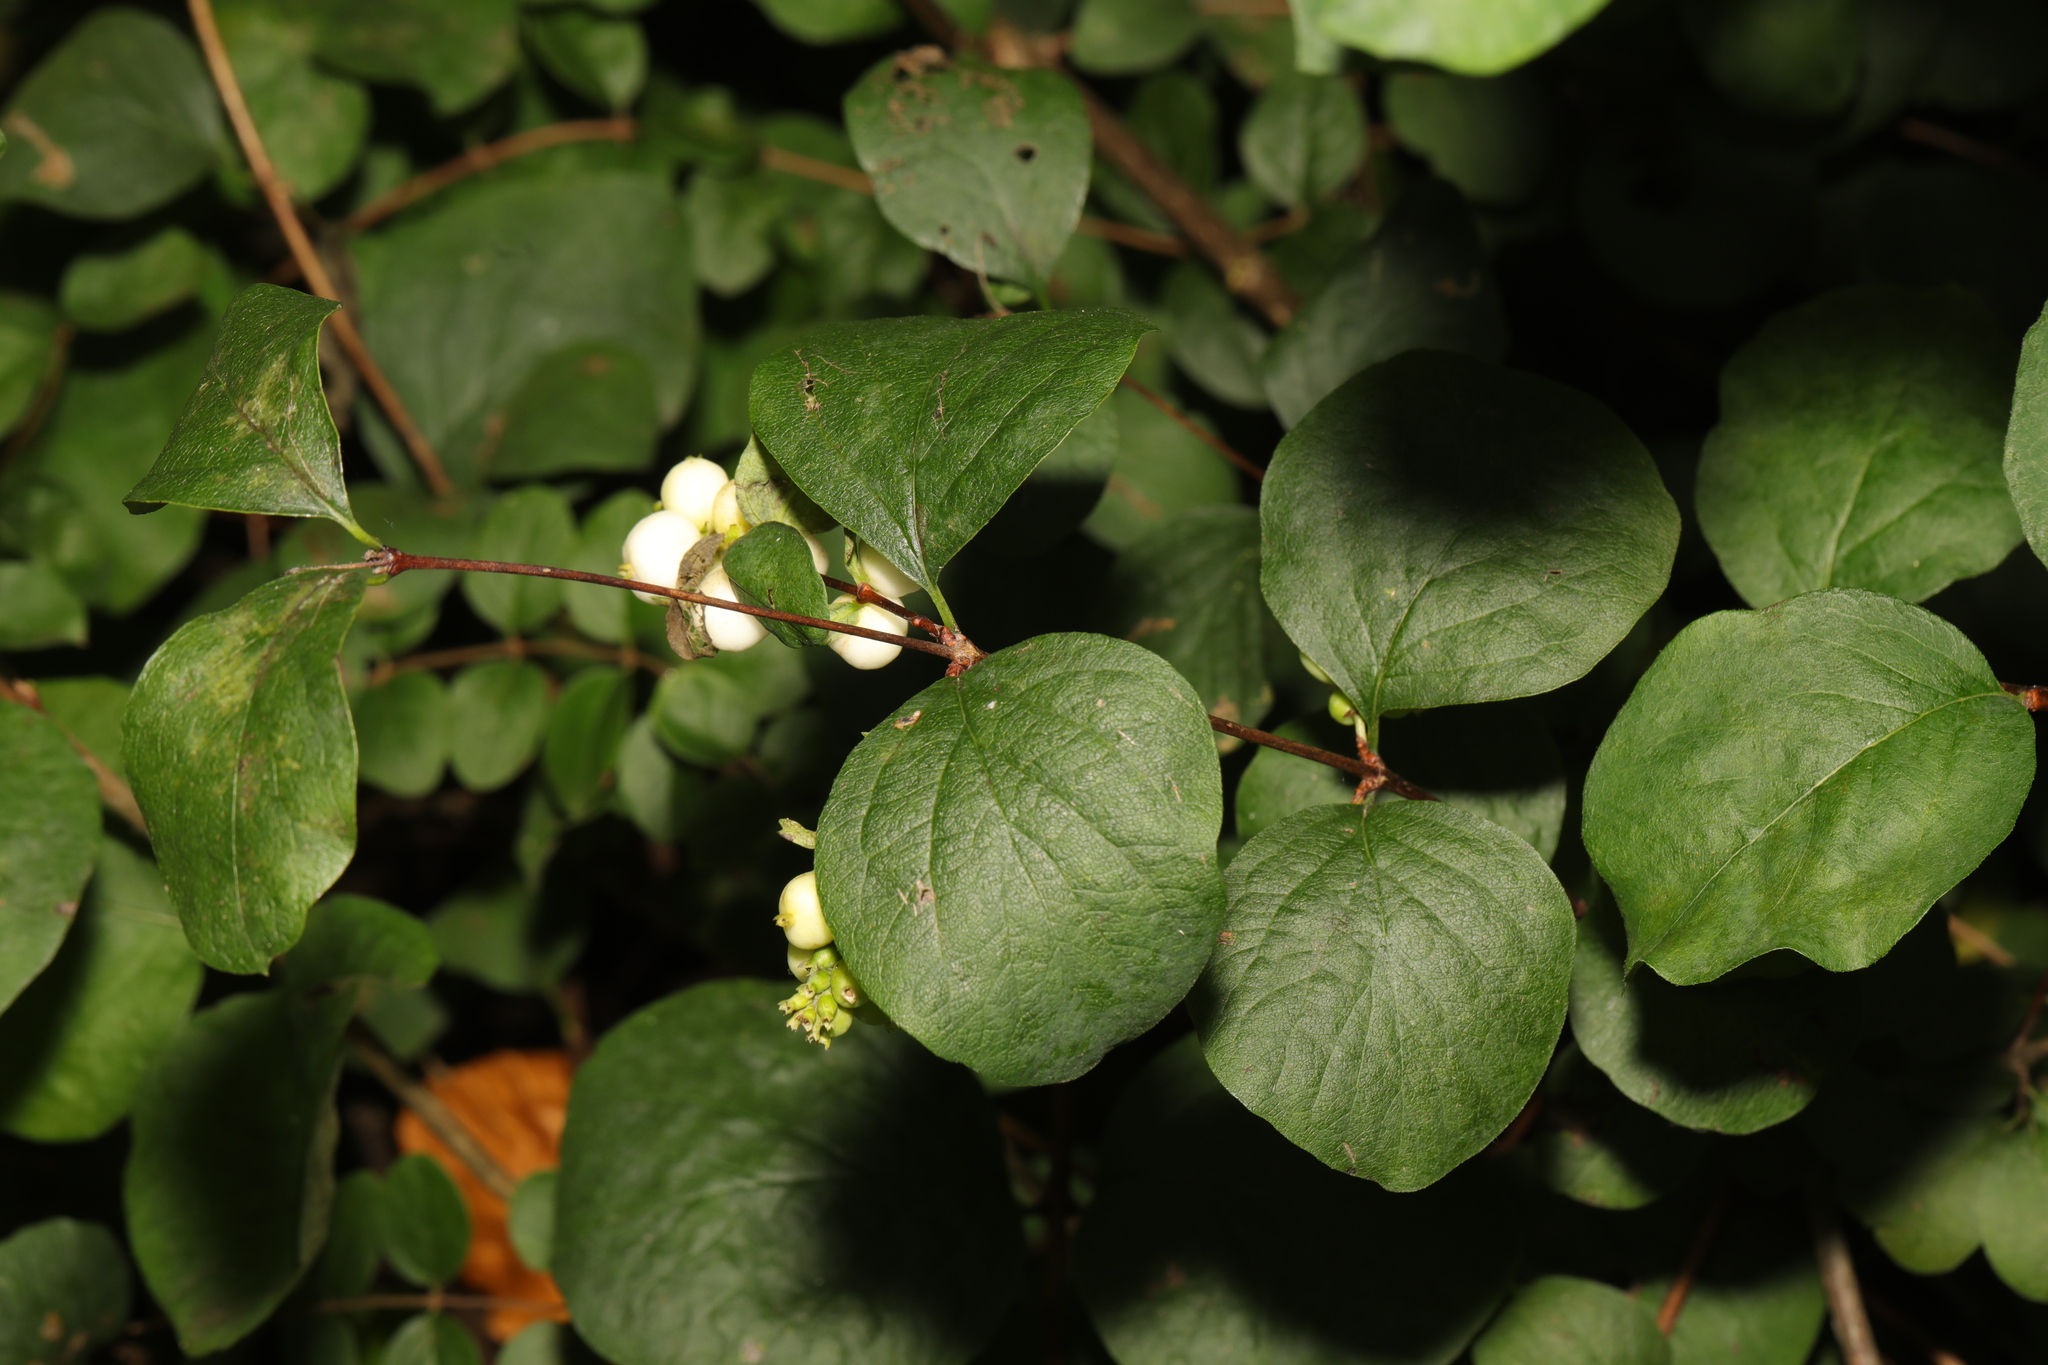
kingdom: Plantae
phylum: Tracheophyta
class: Magnoliopsida
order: Dipsacales
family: Caprifoliaceae
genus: Symphoricarpos
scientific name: Symphoricarpos albus
